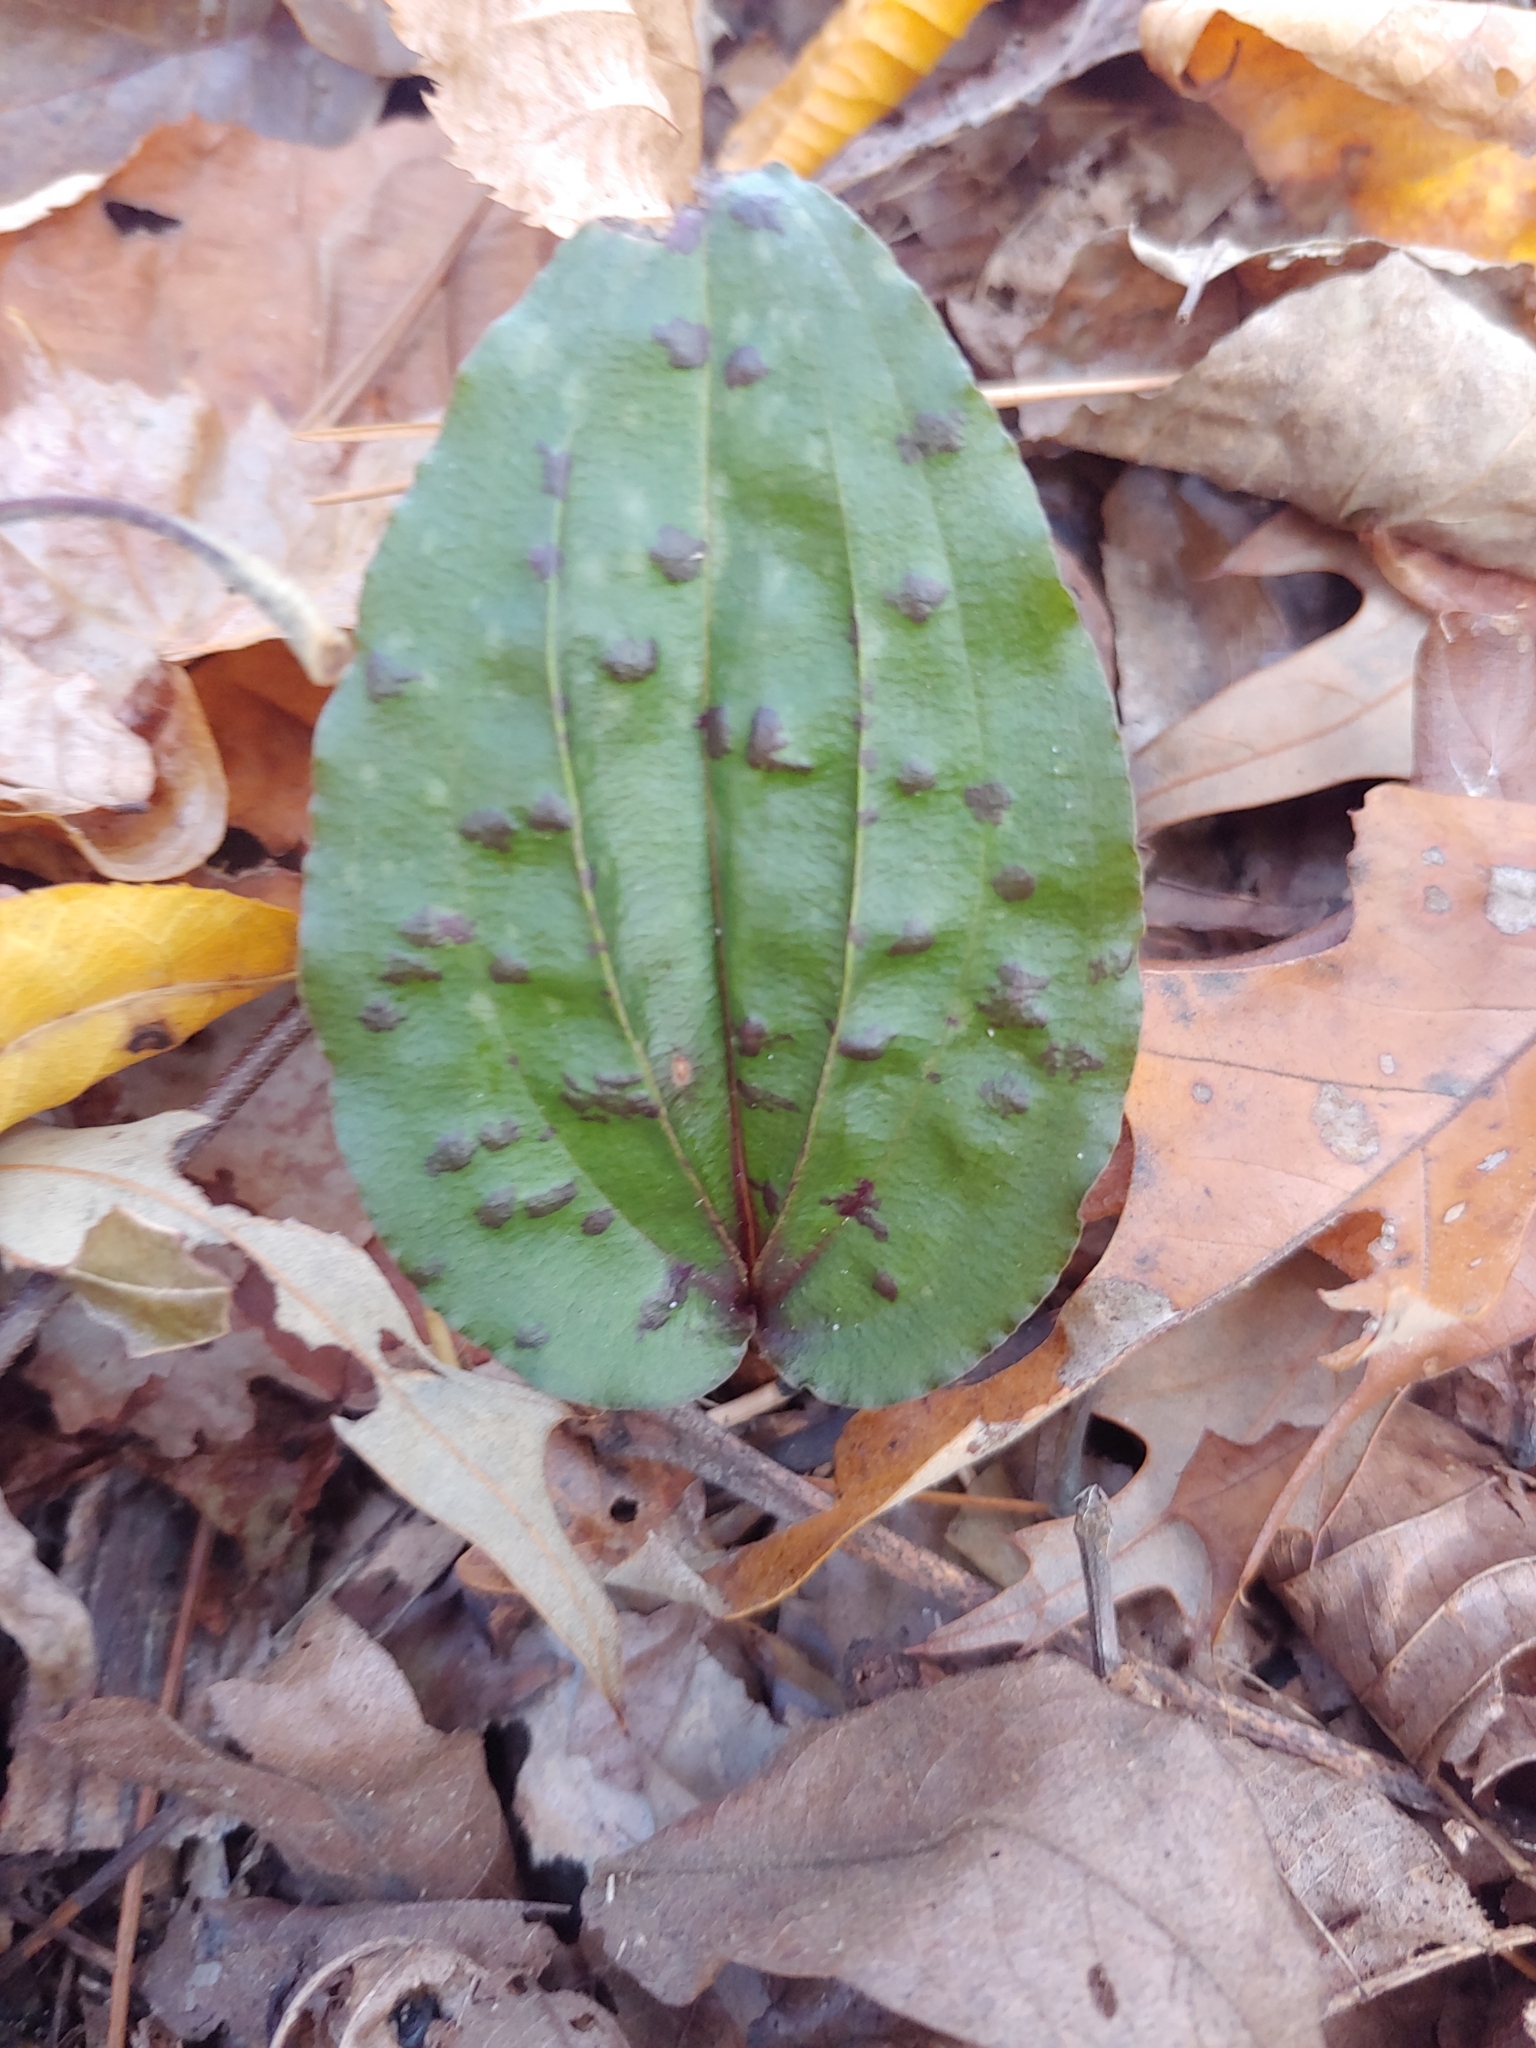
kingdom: Plantae
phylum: Tracheophyta
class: Liliopsida
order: Asparagales
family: Orchidaceae
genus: Tipularia
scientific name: Tipularia discolor
